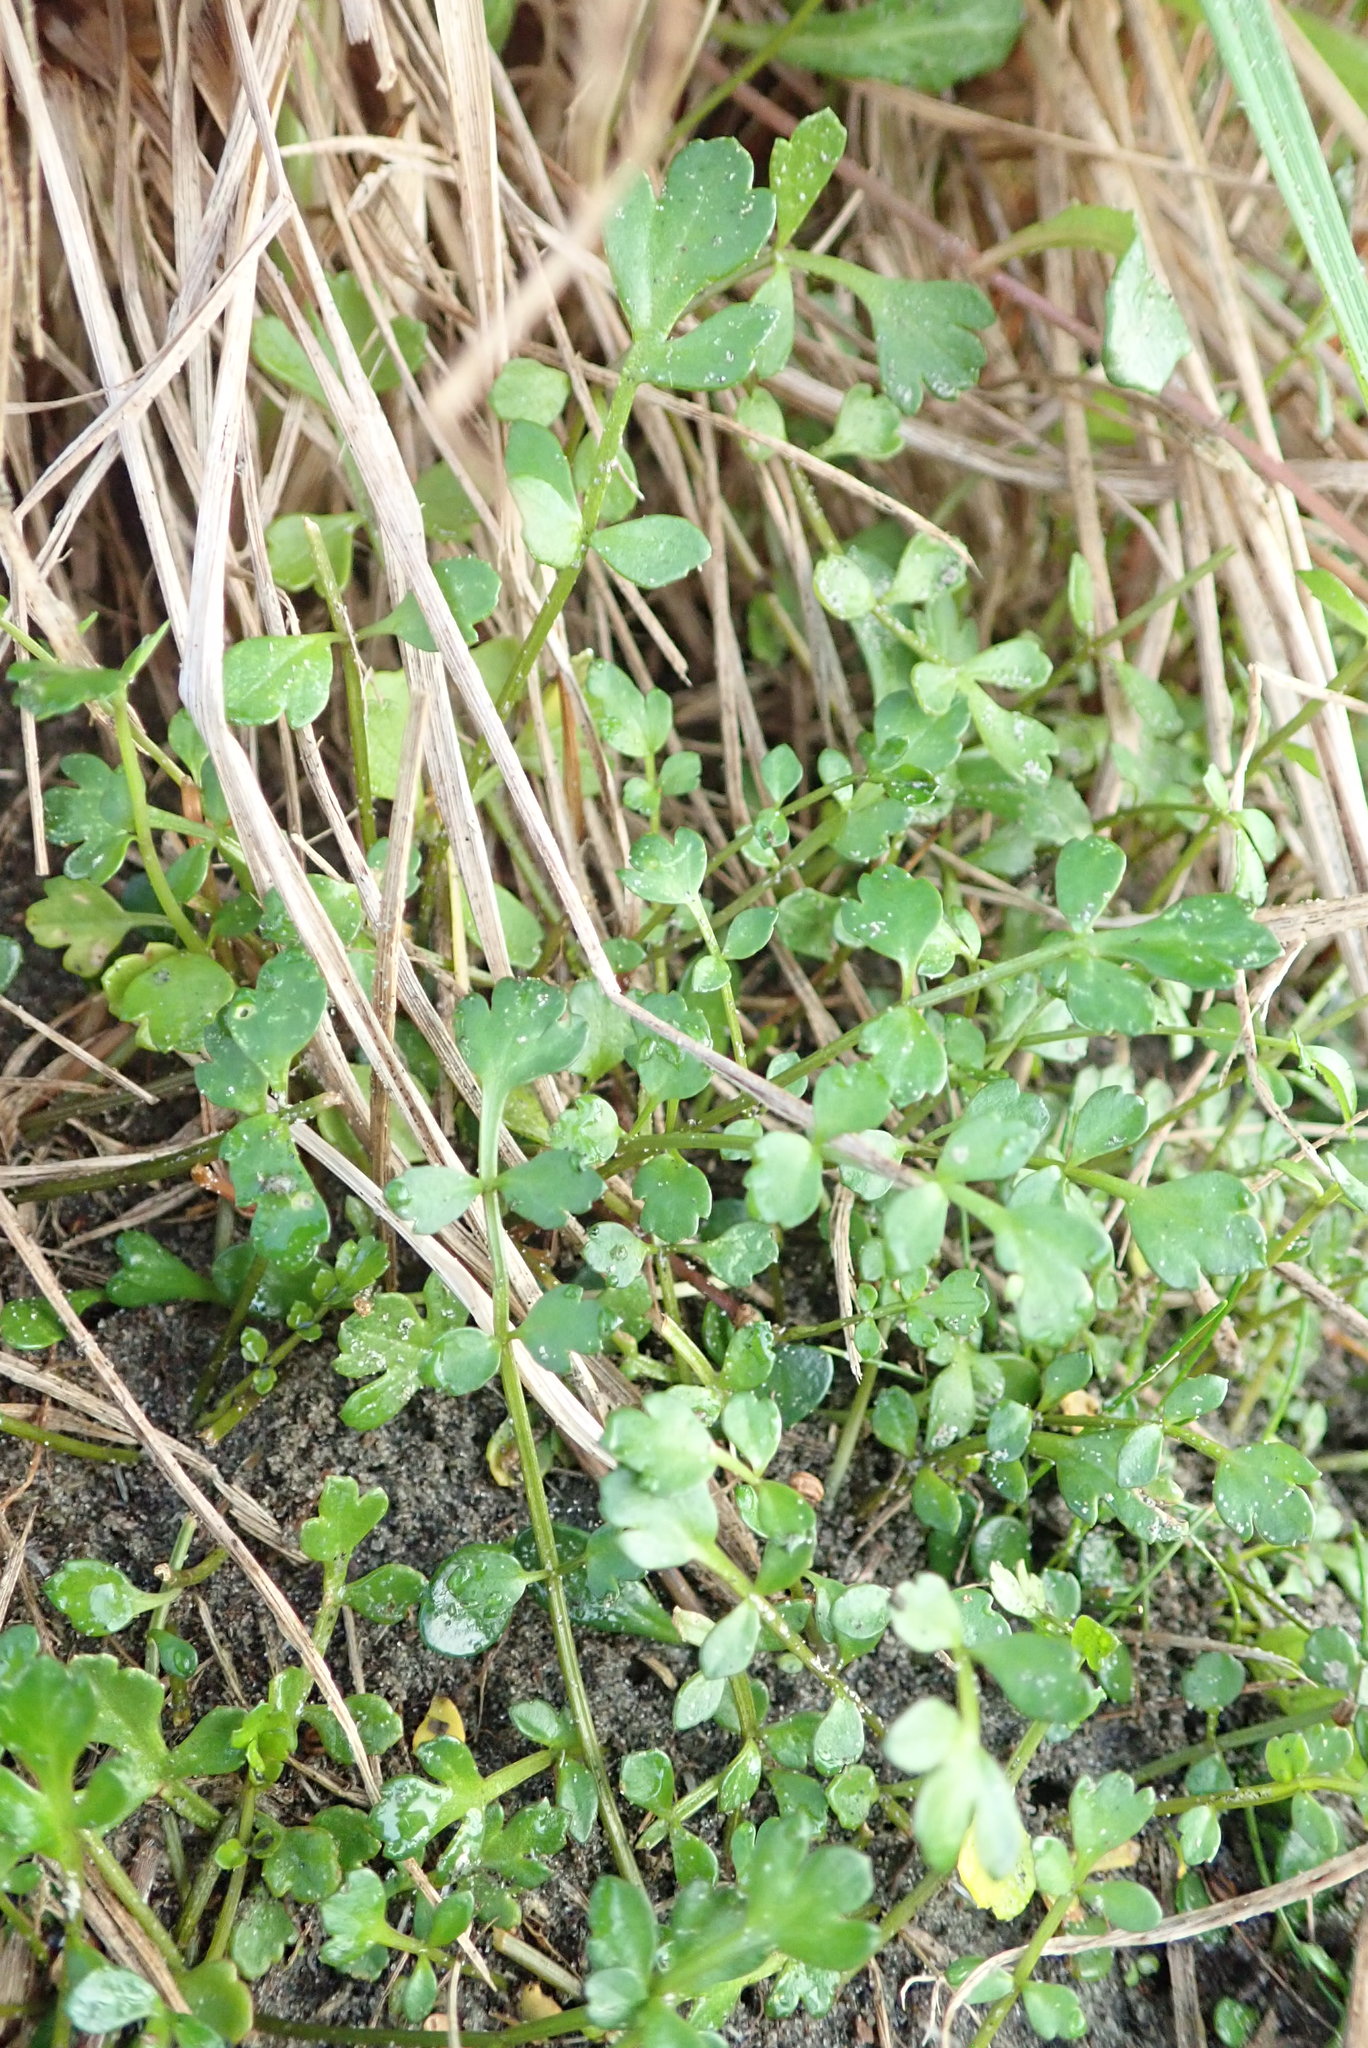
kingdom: Plantae
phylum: Tracheophyta
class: Magnoliopsida
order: Apiales
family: Apiaceae
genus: Apium
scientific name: Apium prostratum
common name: Prostrate marshwort
